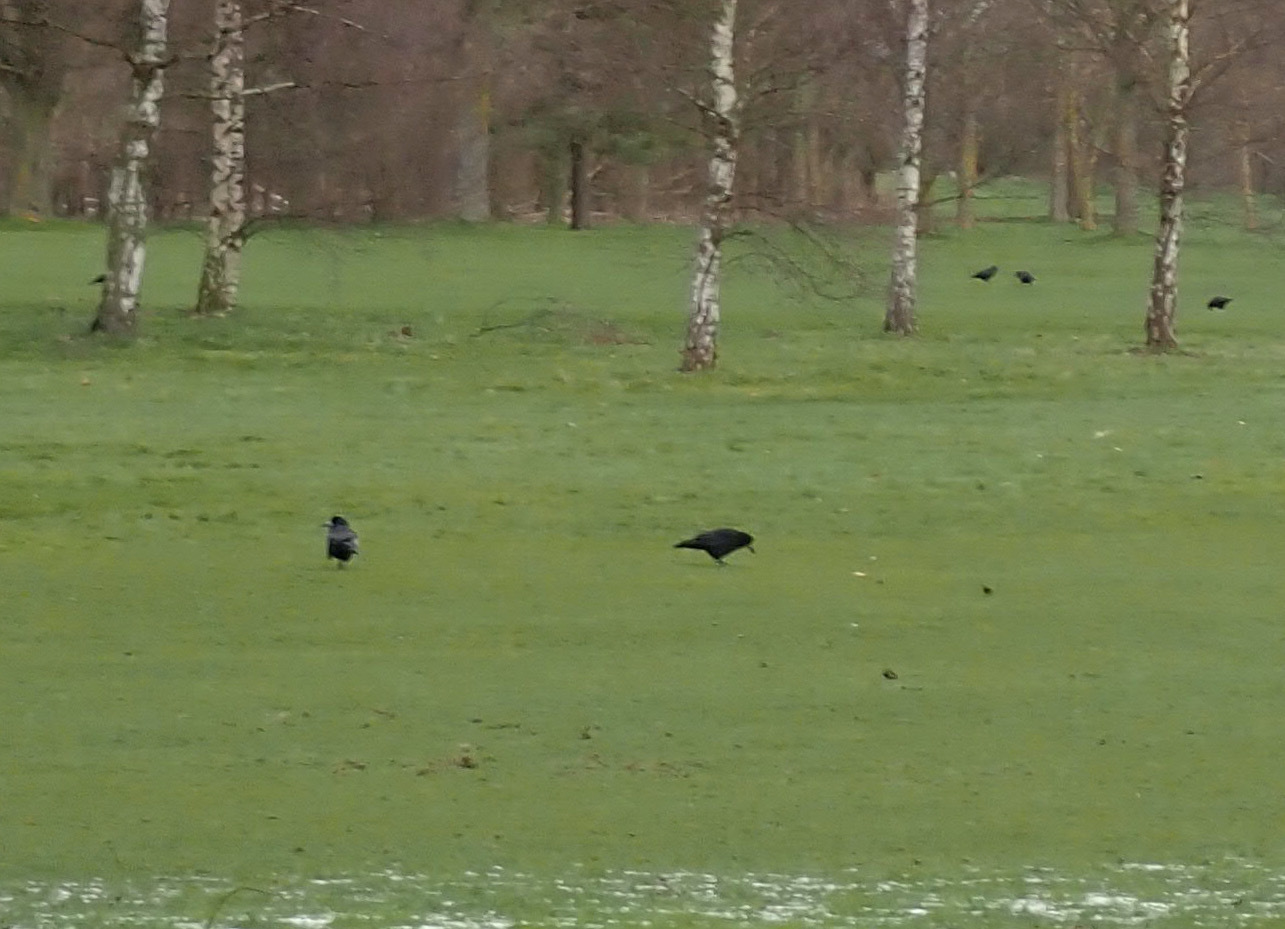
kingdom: Animalia
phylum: Chordata
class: Aves
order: Passeriformes
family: Corvidae
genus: Corvus
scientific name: Corvus frugilegus
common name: Rook
